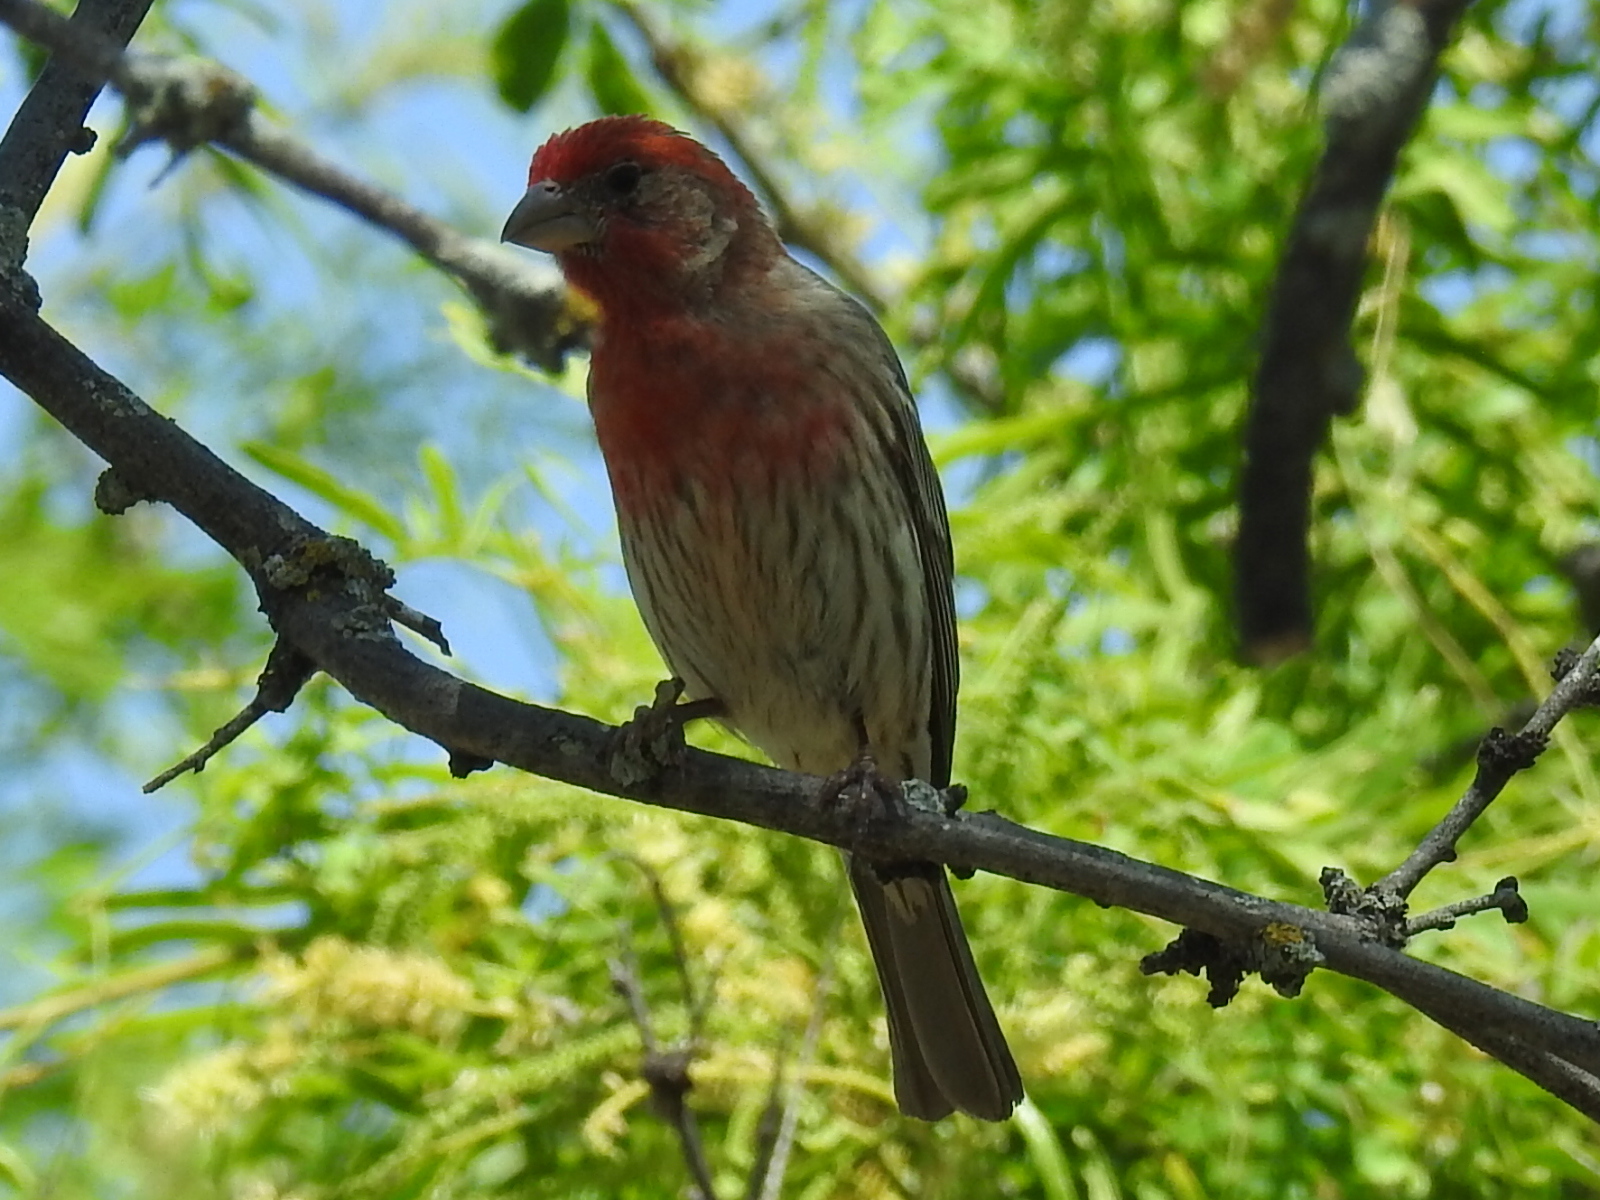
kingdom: Animalia
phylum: Chordata
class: Aves
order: Passeriformes
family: Fringillidae
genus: Haemorhous
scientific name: Haemorhous mexicanus
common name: House finch
